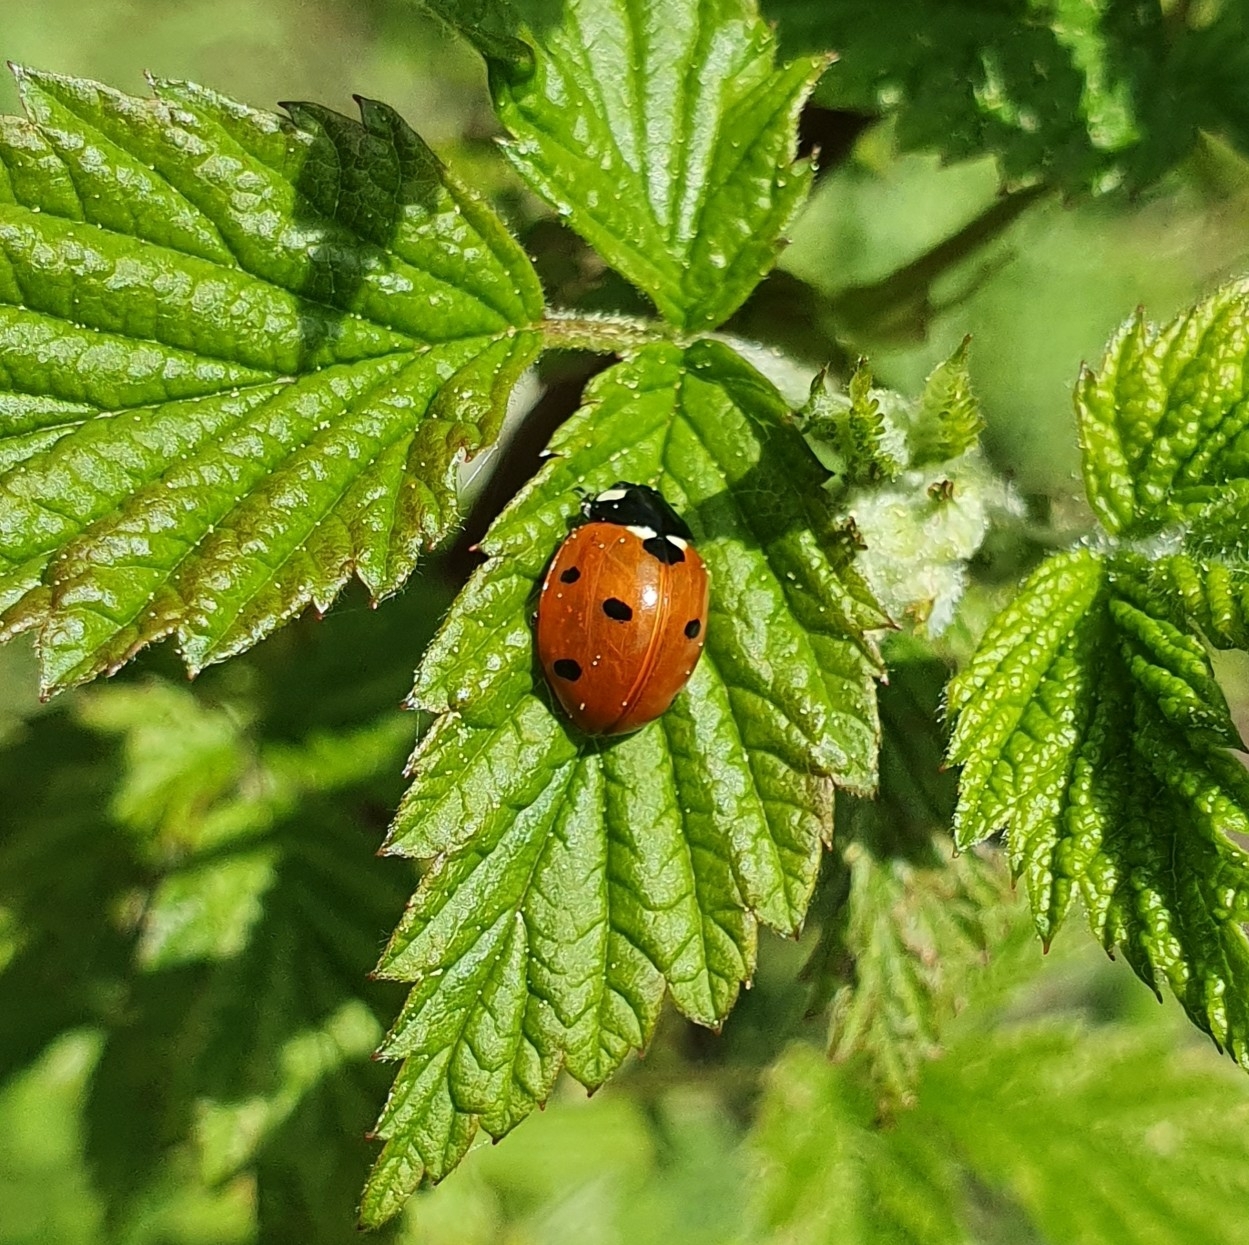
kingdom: Animalia
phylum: Arthropoda
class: Insecta
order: Coleoptera
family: Coccinellidae
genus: Coccinella
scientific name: Coccinella septempunctata
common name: Sevenspotted lady beetle
